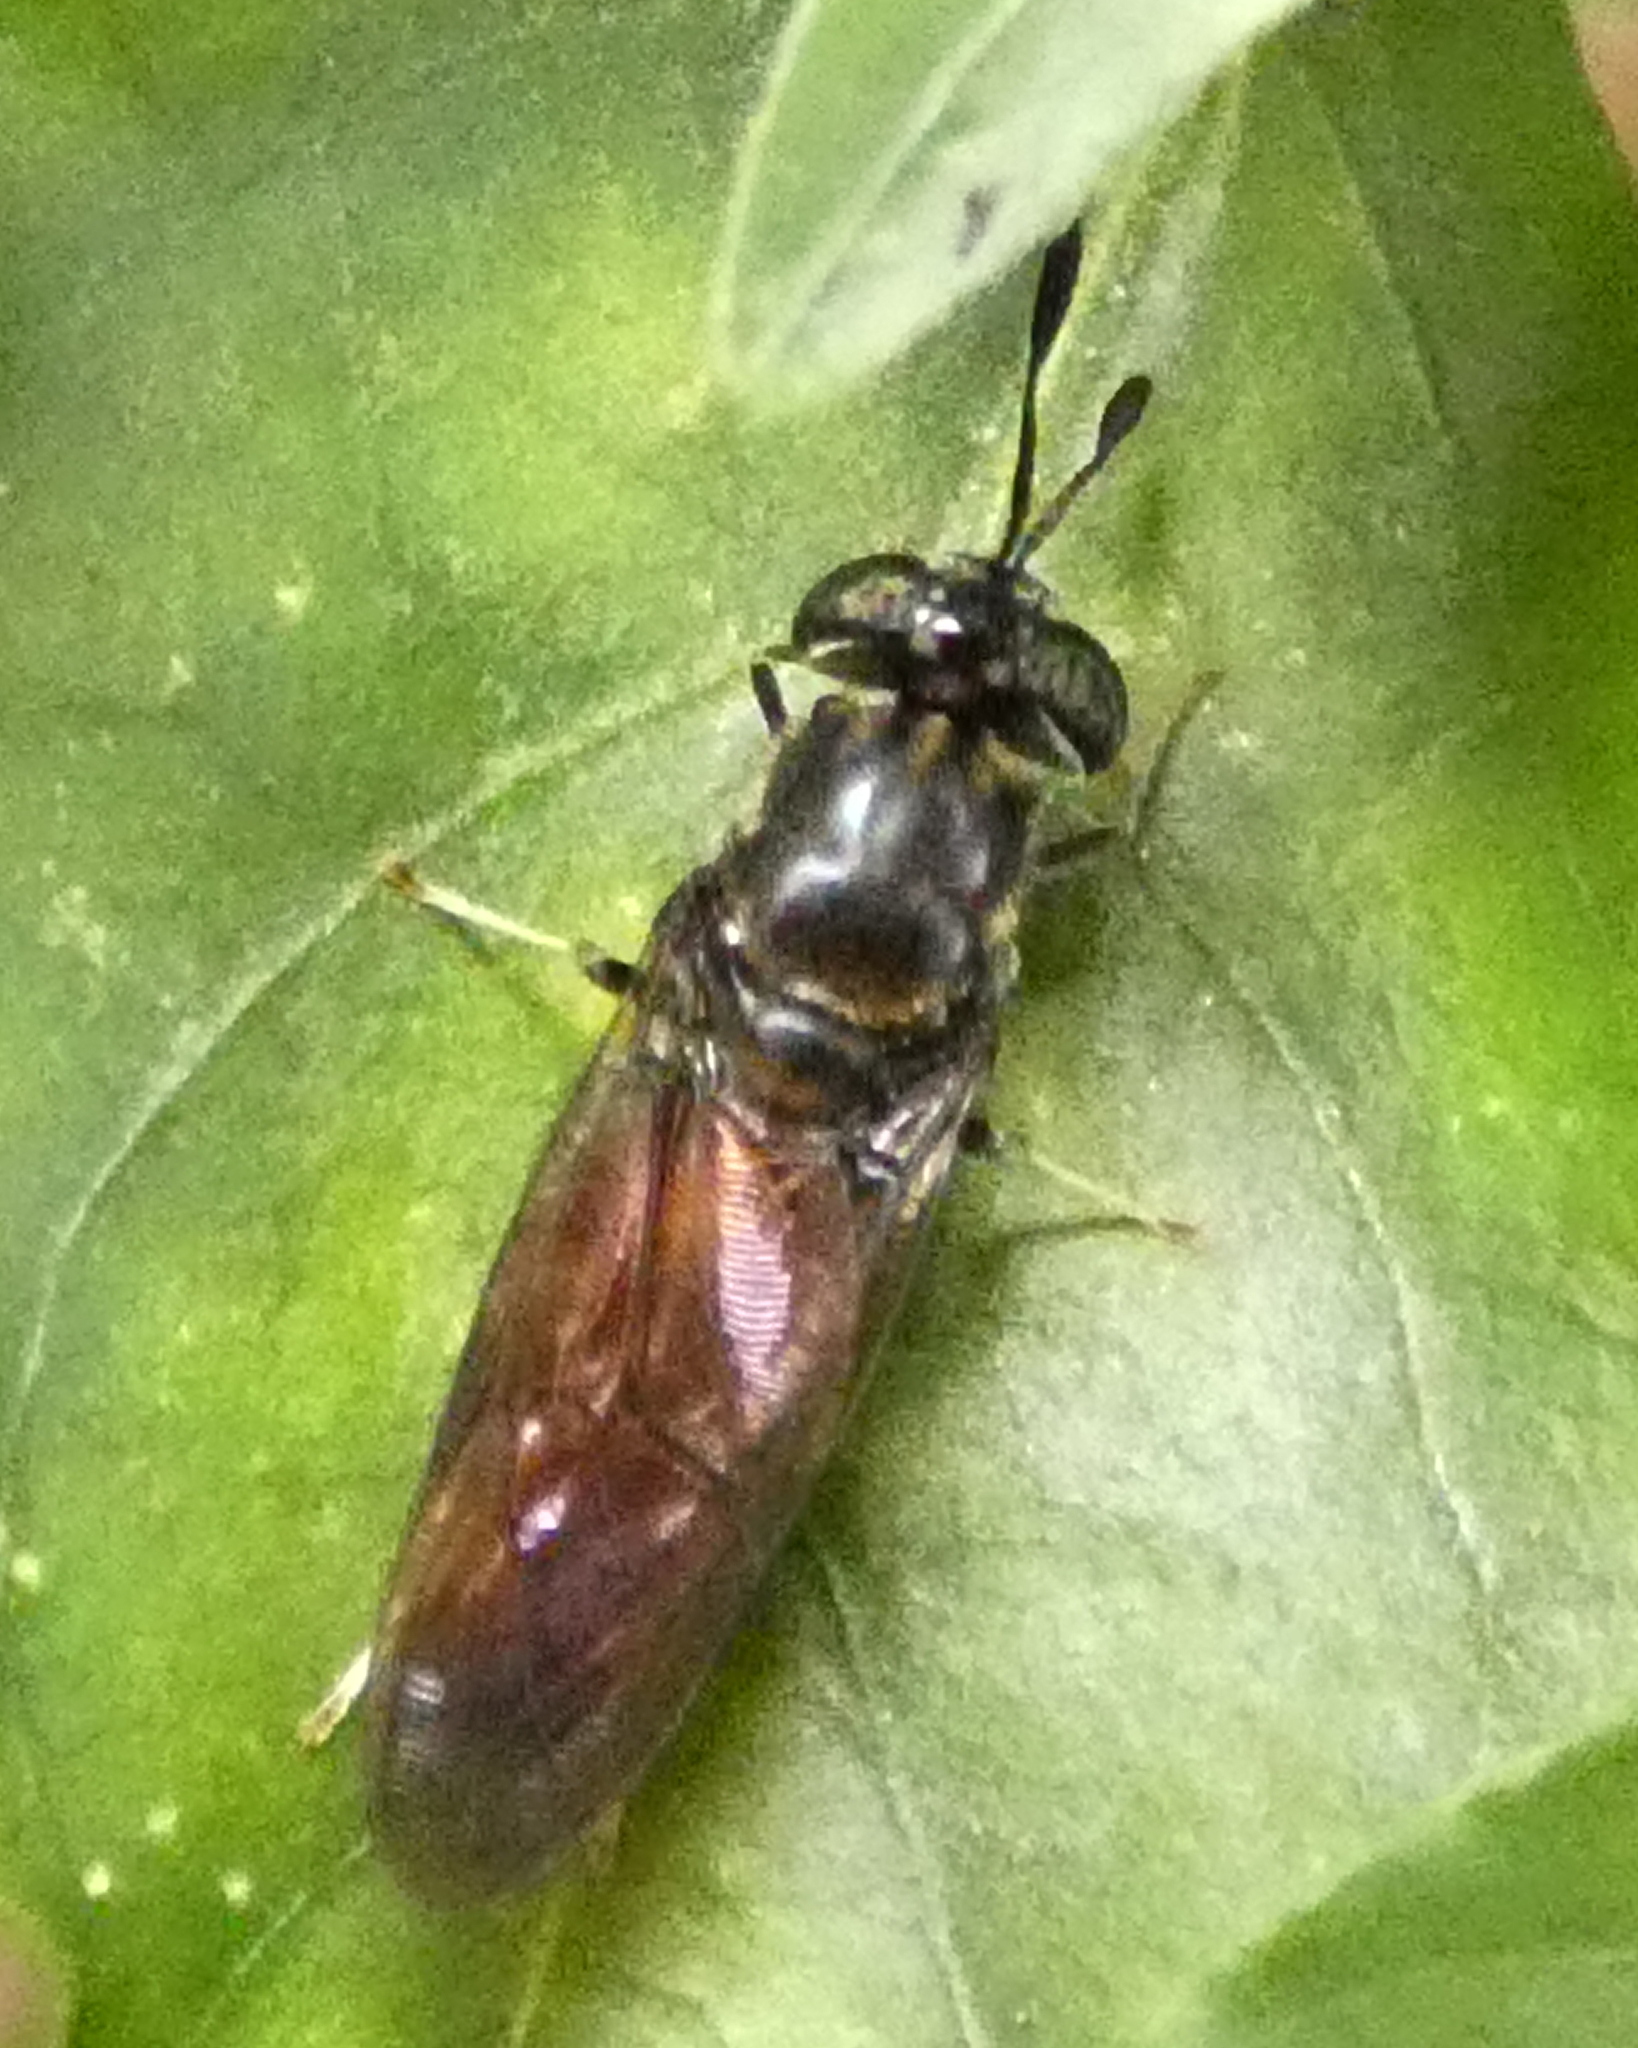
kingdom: Animalia
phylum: Arthropoda
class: Insecta
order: Diptera
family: Stratiomyidae
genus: Hermetia
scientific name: Hermetia illucens
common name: Black soldier fly
